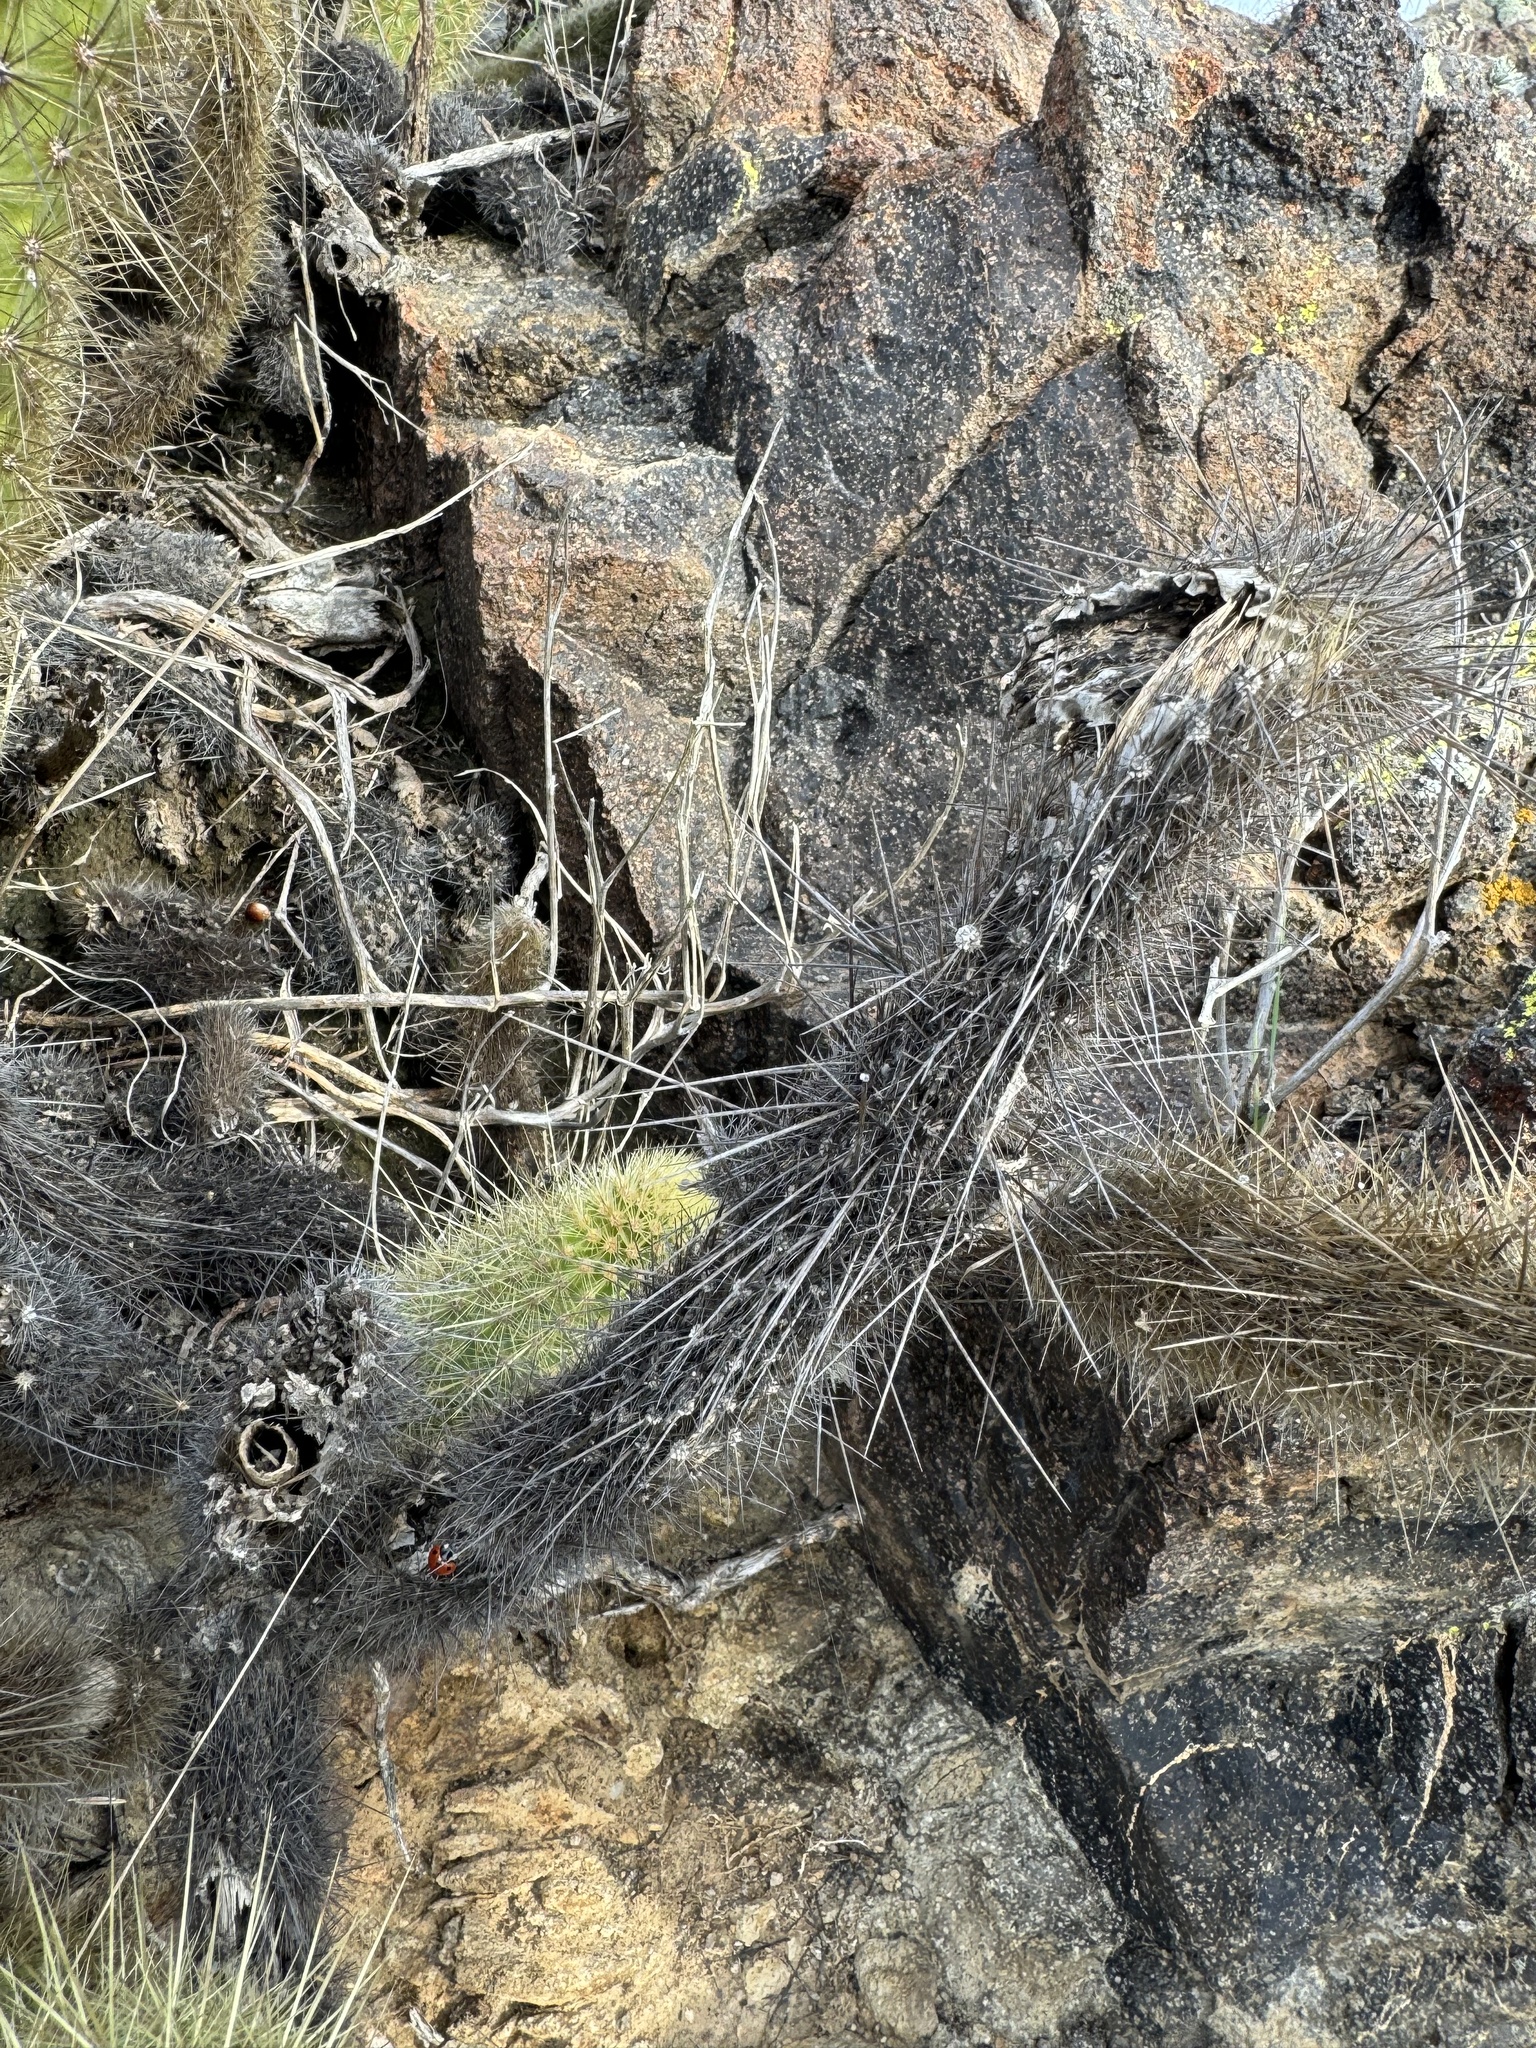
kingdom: Plantae
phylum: Tracheophyta
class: Magnoliopsida
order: Caryophyllales
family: Cactaceae
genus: Bergerocactus
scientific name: Bergerocactus emoryi
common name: Golden snakecactus
